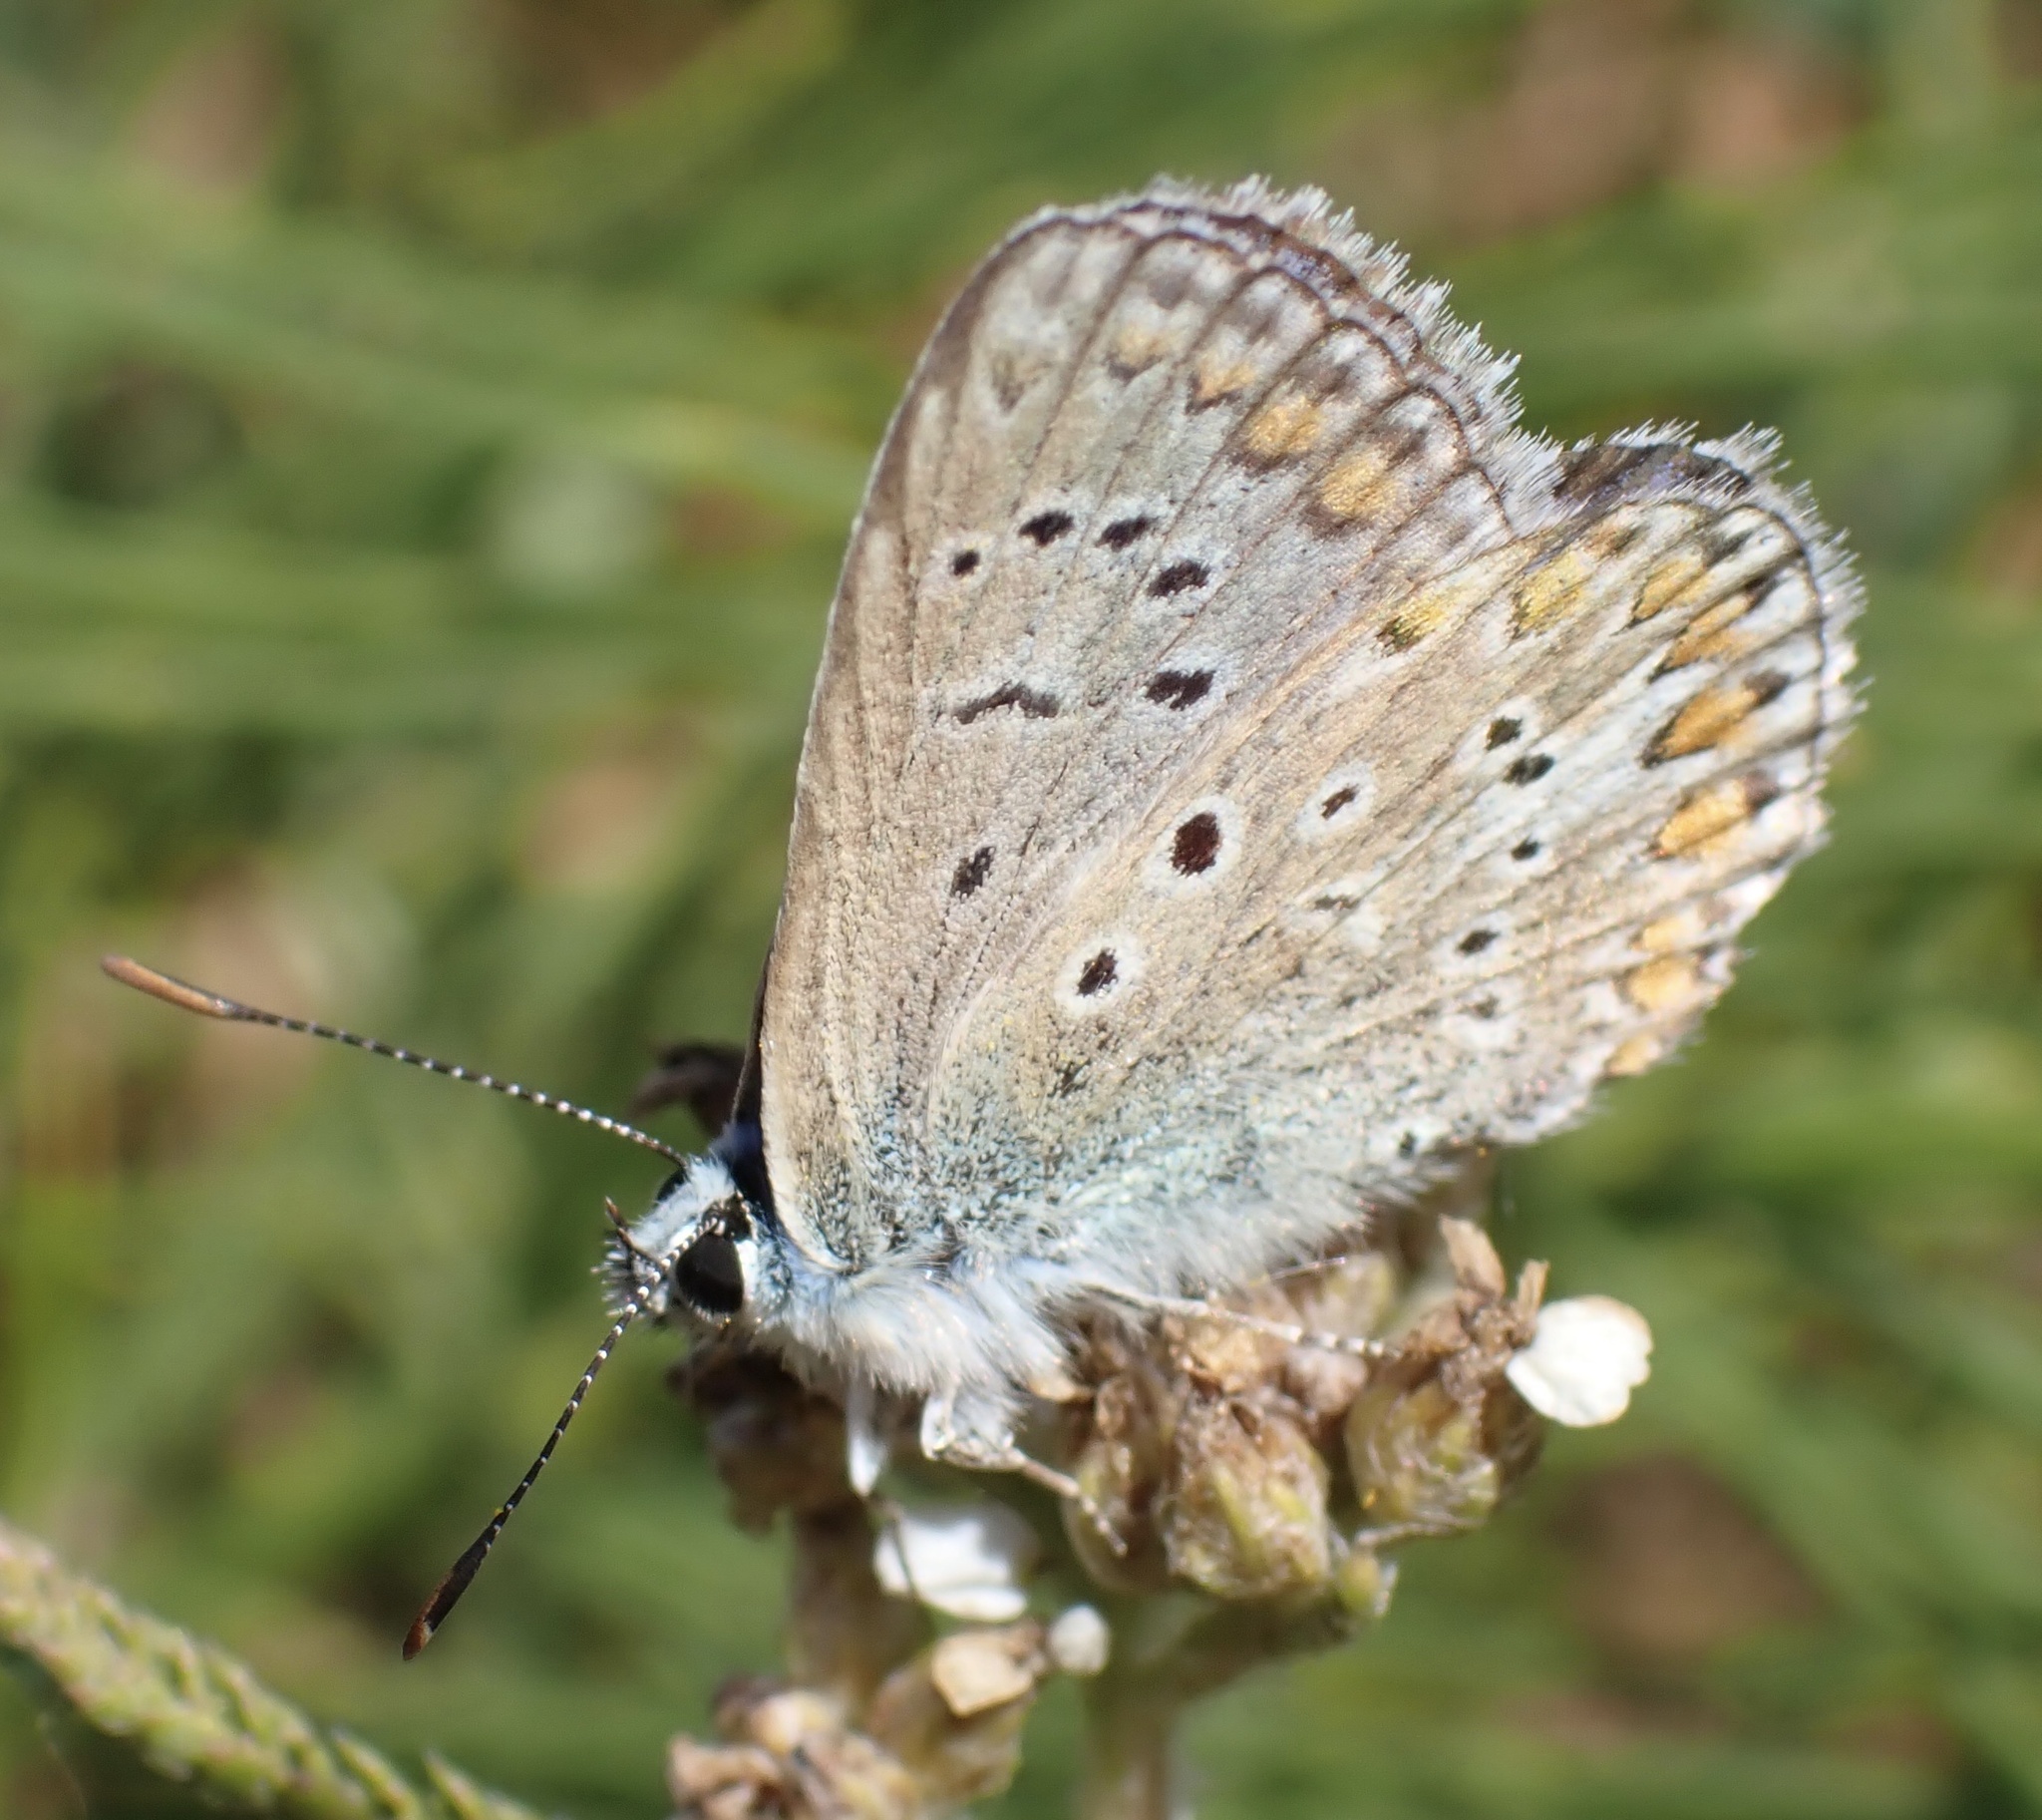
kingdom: Animalia
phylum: Arthropoda
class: Insecta
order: Lepidoptera
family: Lycaenidae
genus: Polyommatus
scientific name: Polyommatus icarus
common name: Common blue
